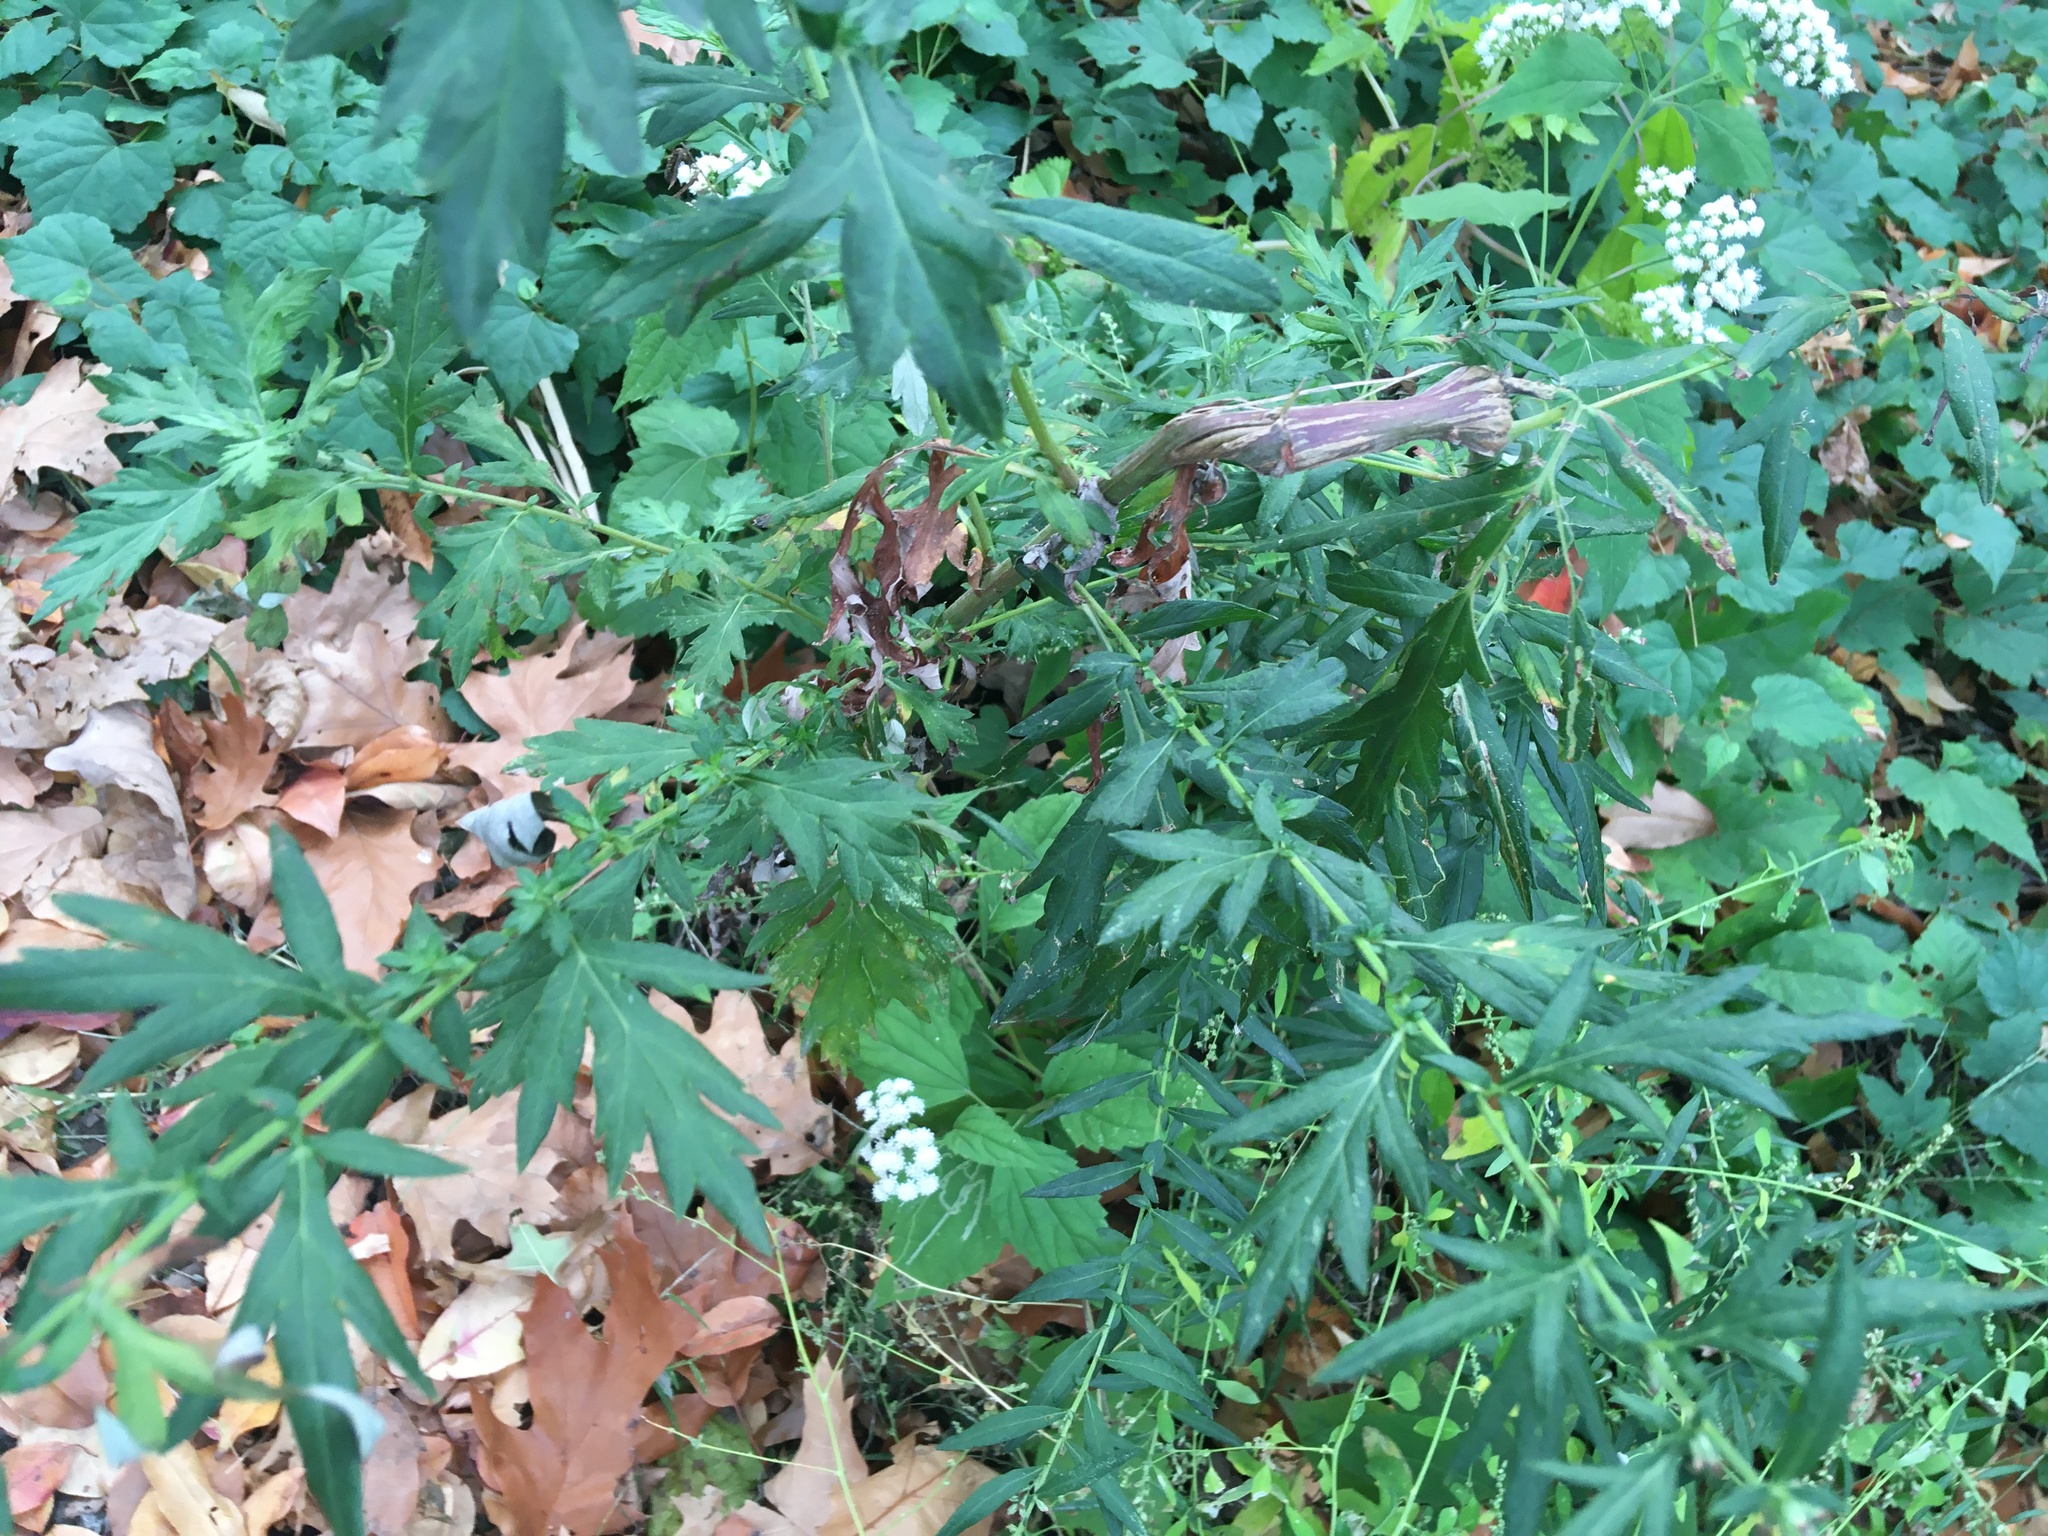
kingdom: Plantae
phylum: Tracheophyta
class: Magnoliopsida
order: Asterales
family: Asteraceae
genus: Artemisia
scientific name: Artemisia vulgaris
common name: Mugwort
